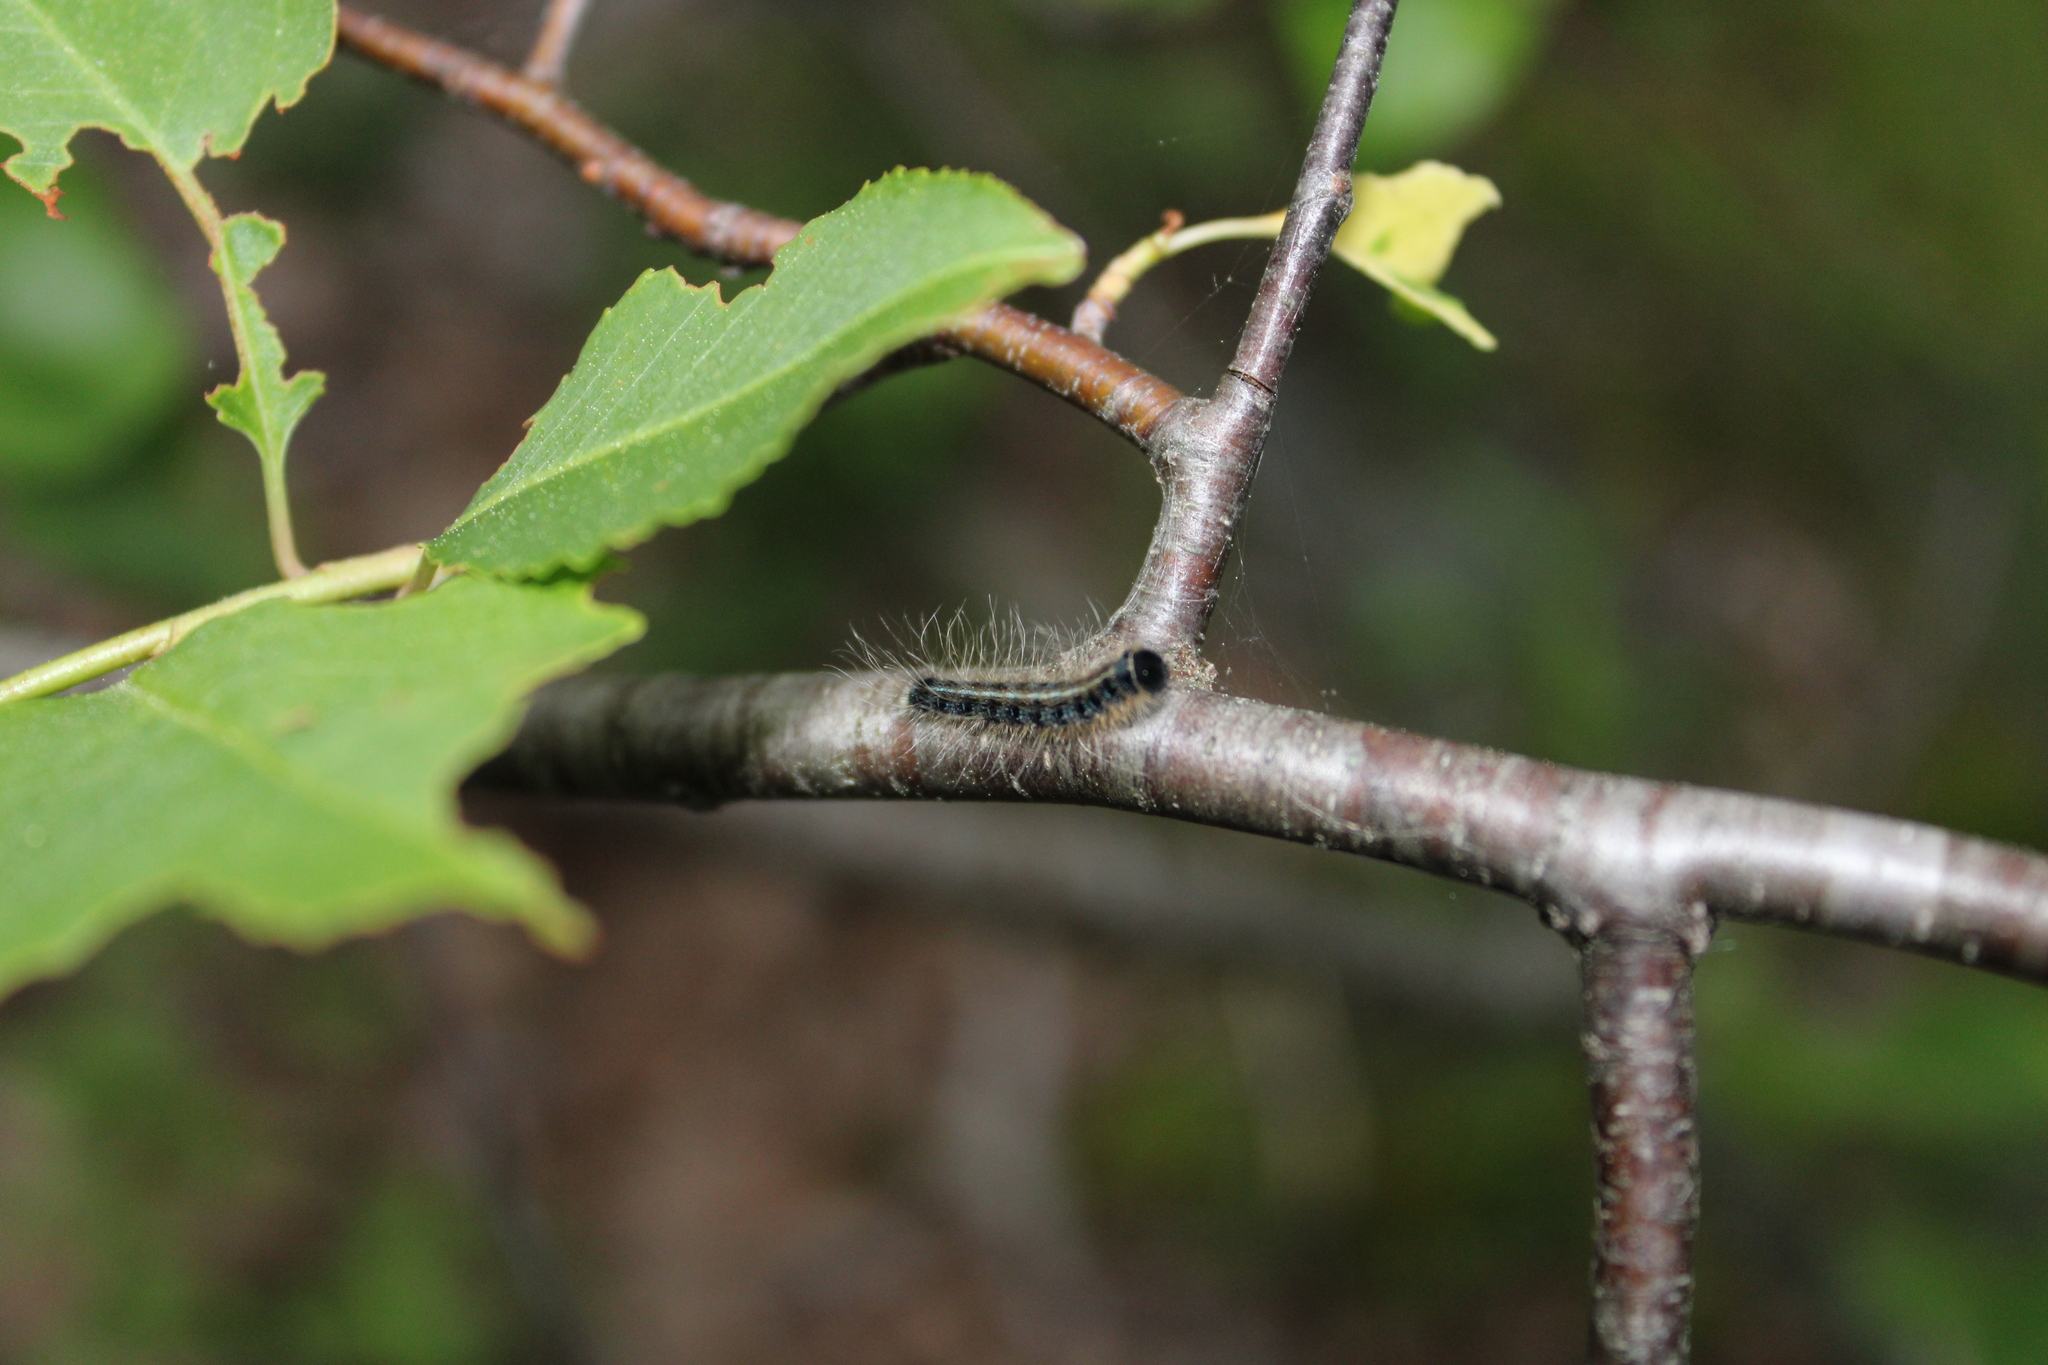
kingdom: Animalia
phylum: Arthropoda
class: Insecta
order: Lepidoptera
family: Lasiocampidae
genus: Malacosoma
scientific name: Malacosoma americana
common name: Eastern tent caterpillar moth
